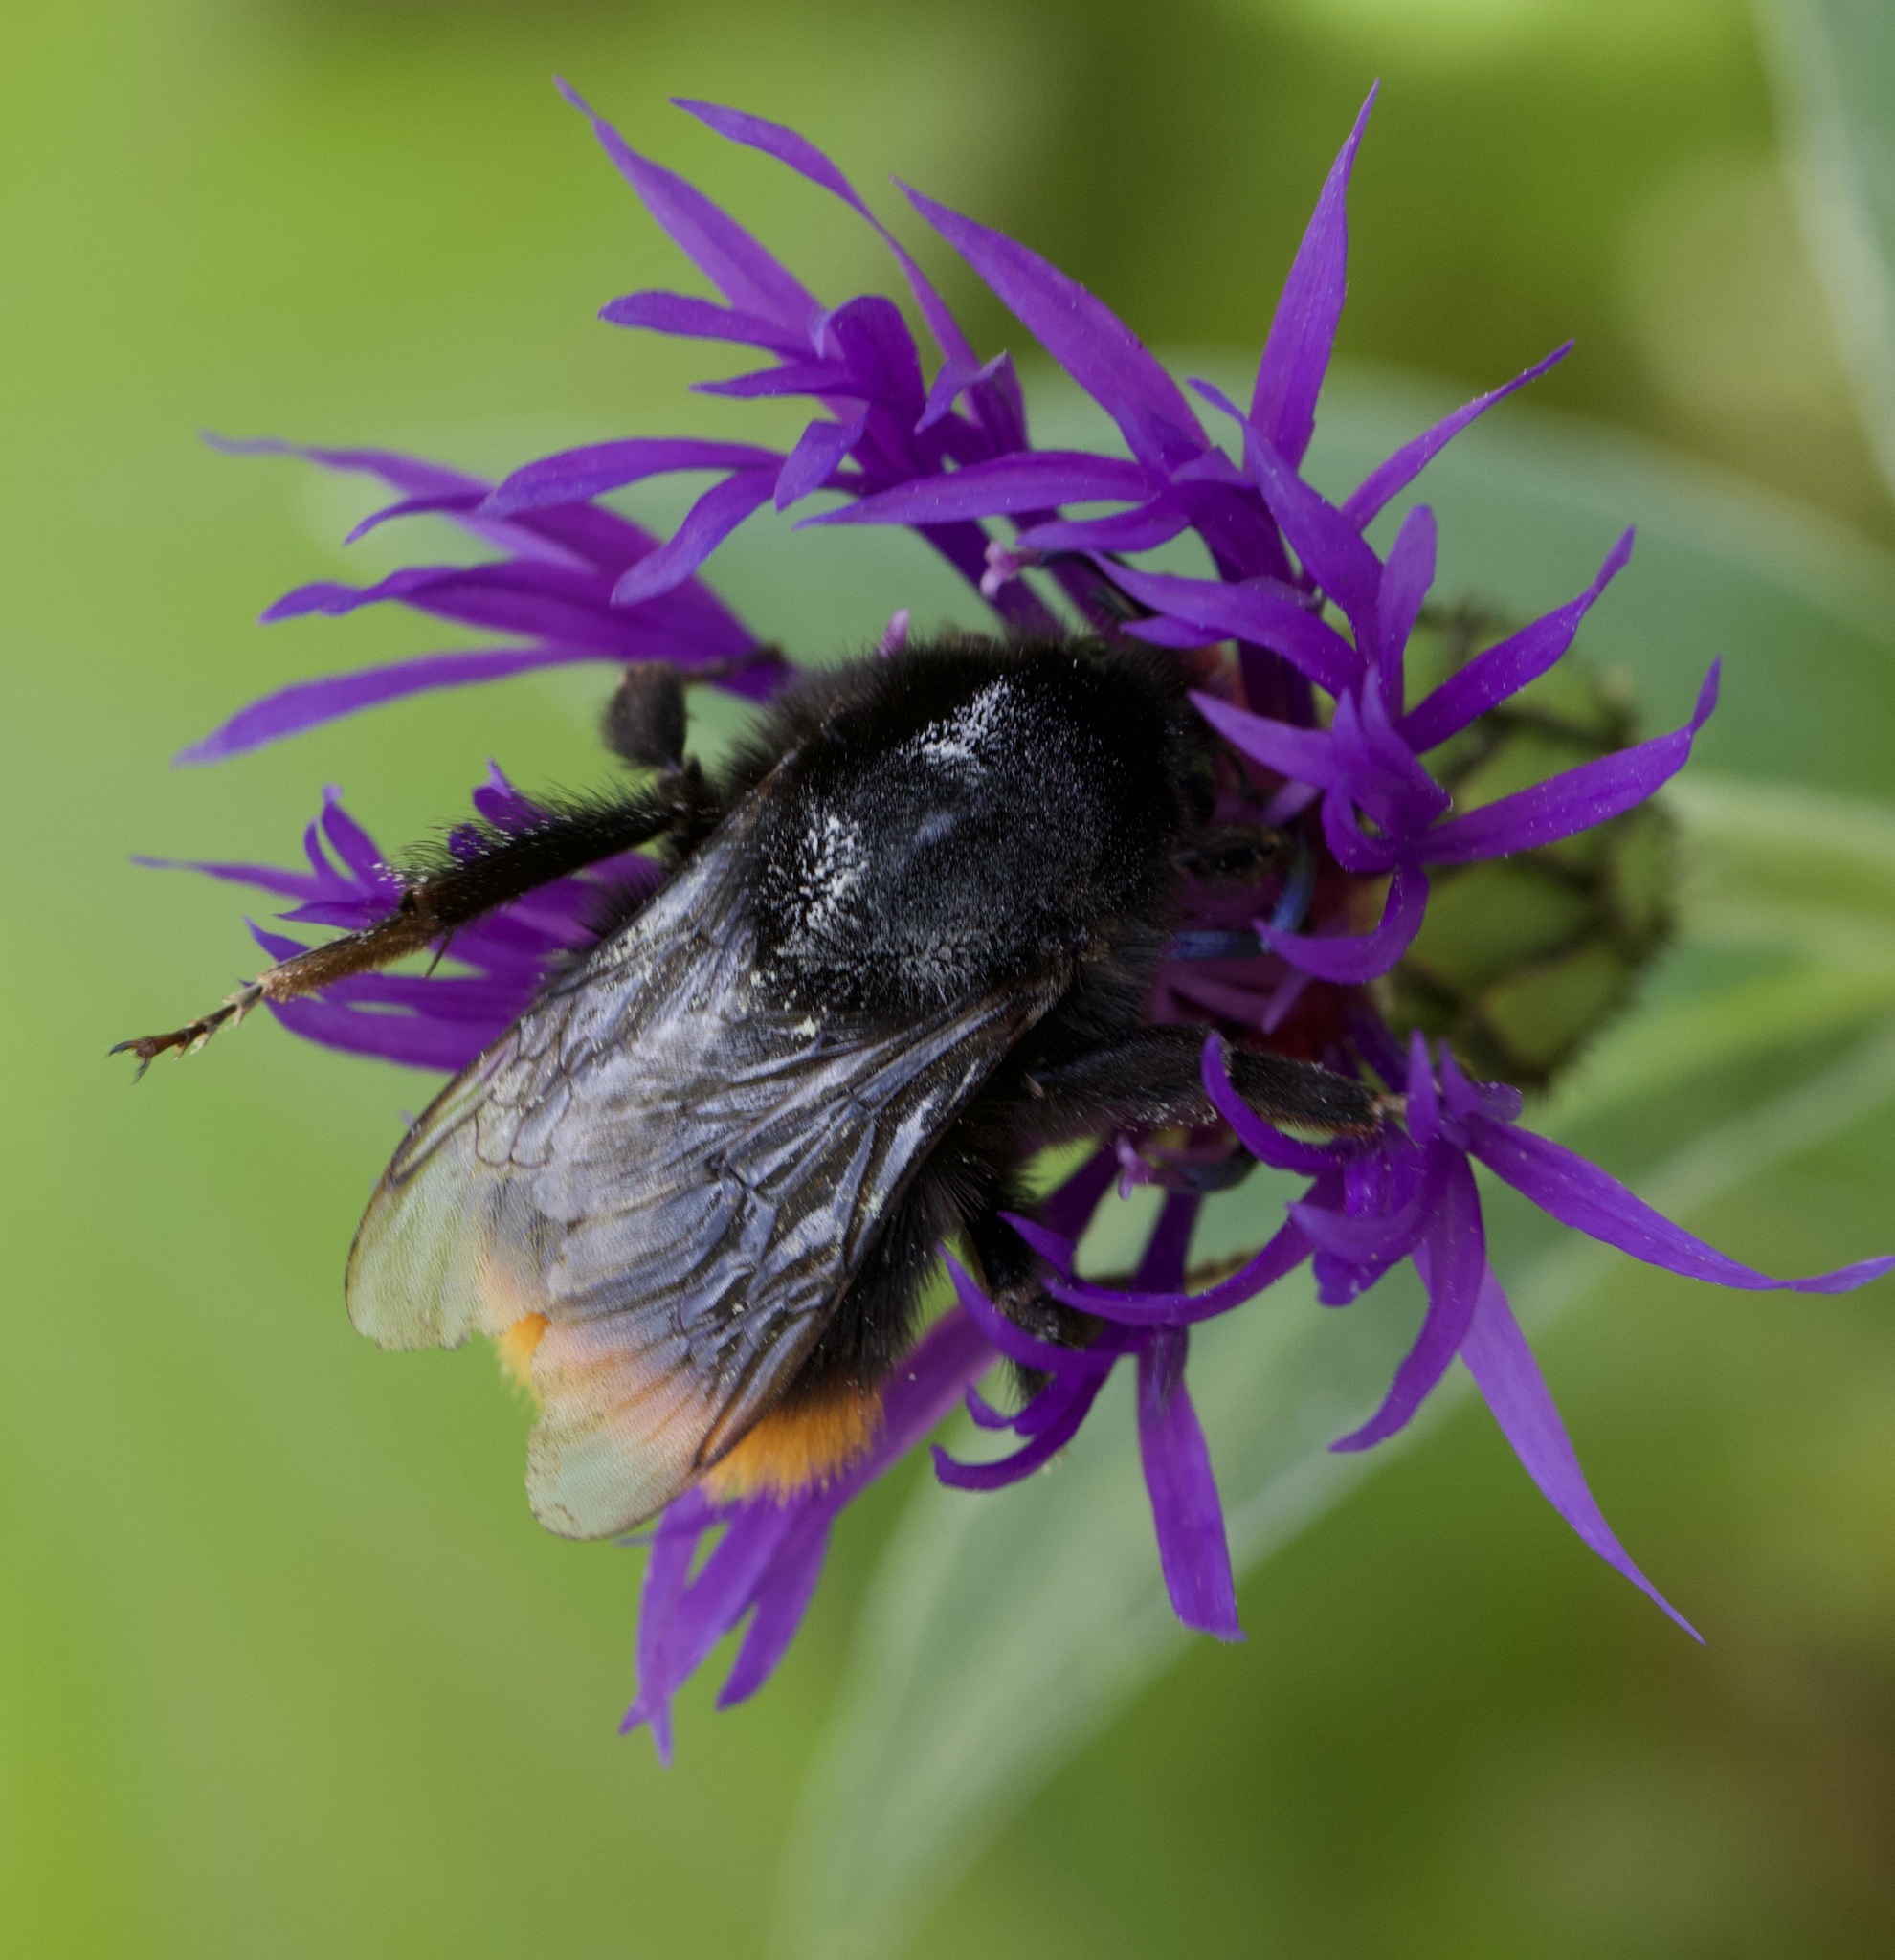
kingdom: Animalia
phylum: Arthropoda
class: Insecta
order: Hymenoptera
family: Apidae
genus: Bombus
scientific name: Bombus lapidarius
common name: Large red-tailed humble-bee
